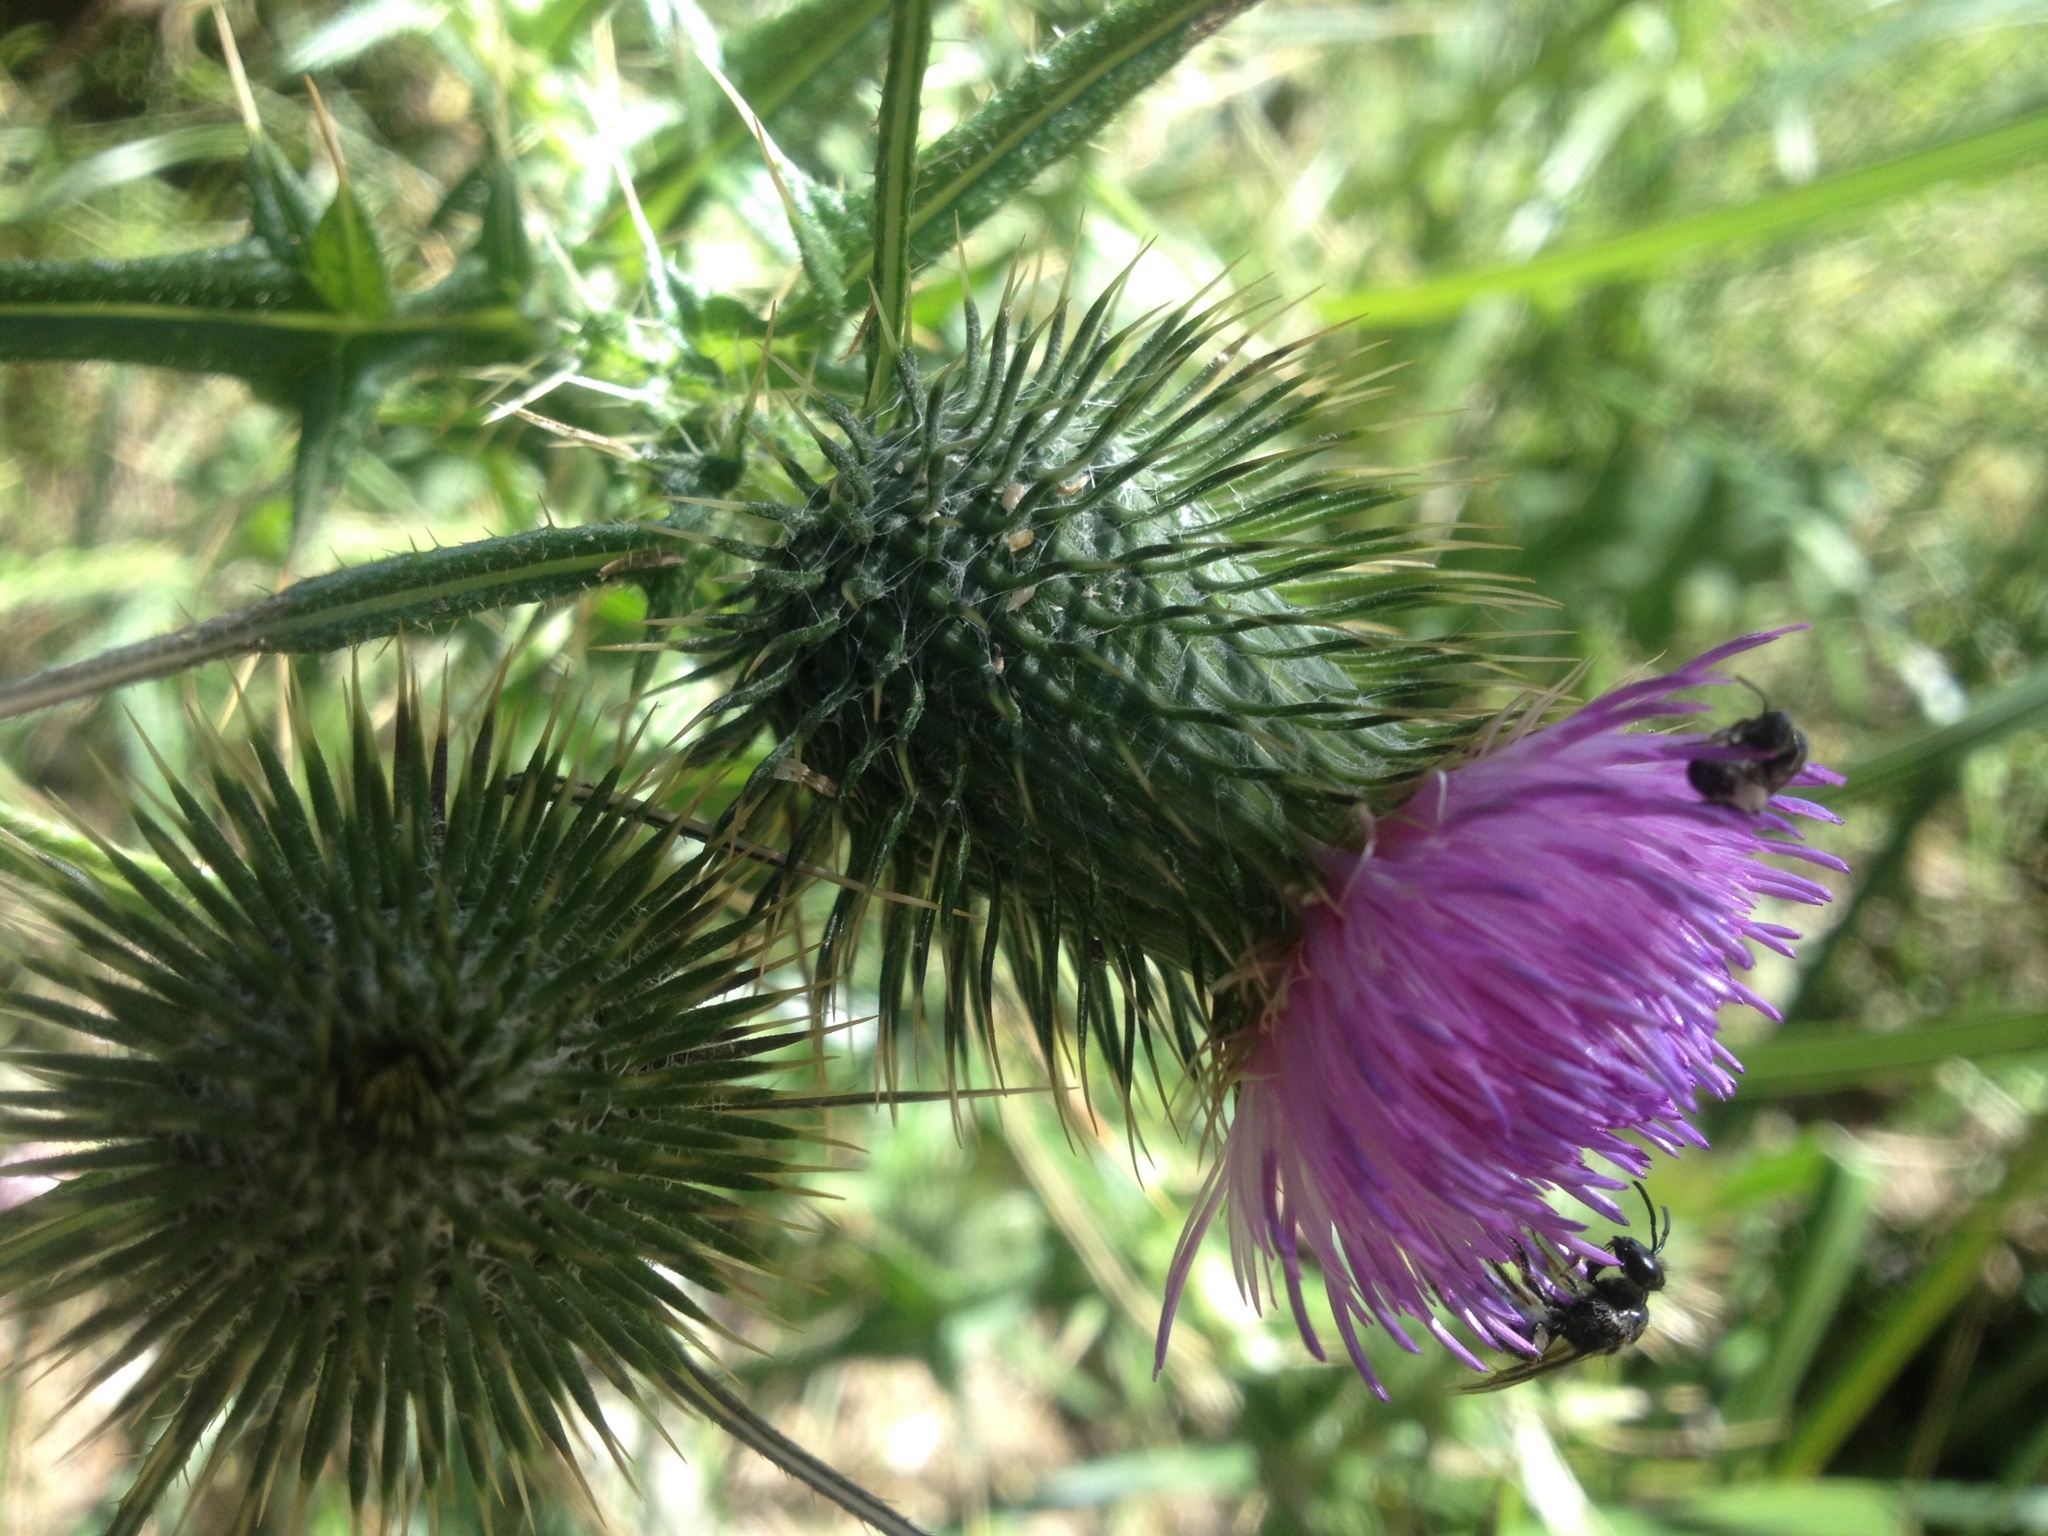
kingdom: Plantae
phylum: Tracheophyta
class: Magnoliopsida
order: Asterales
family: Asteraceae
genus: Cirsium
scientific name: Cirsium vulgare
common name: Bull thistle
